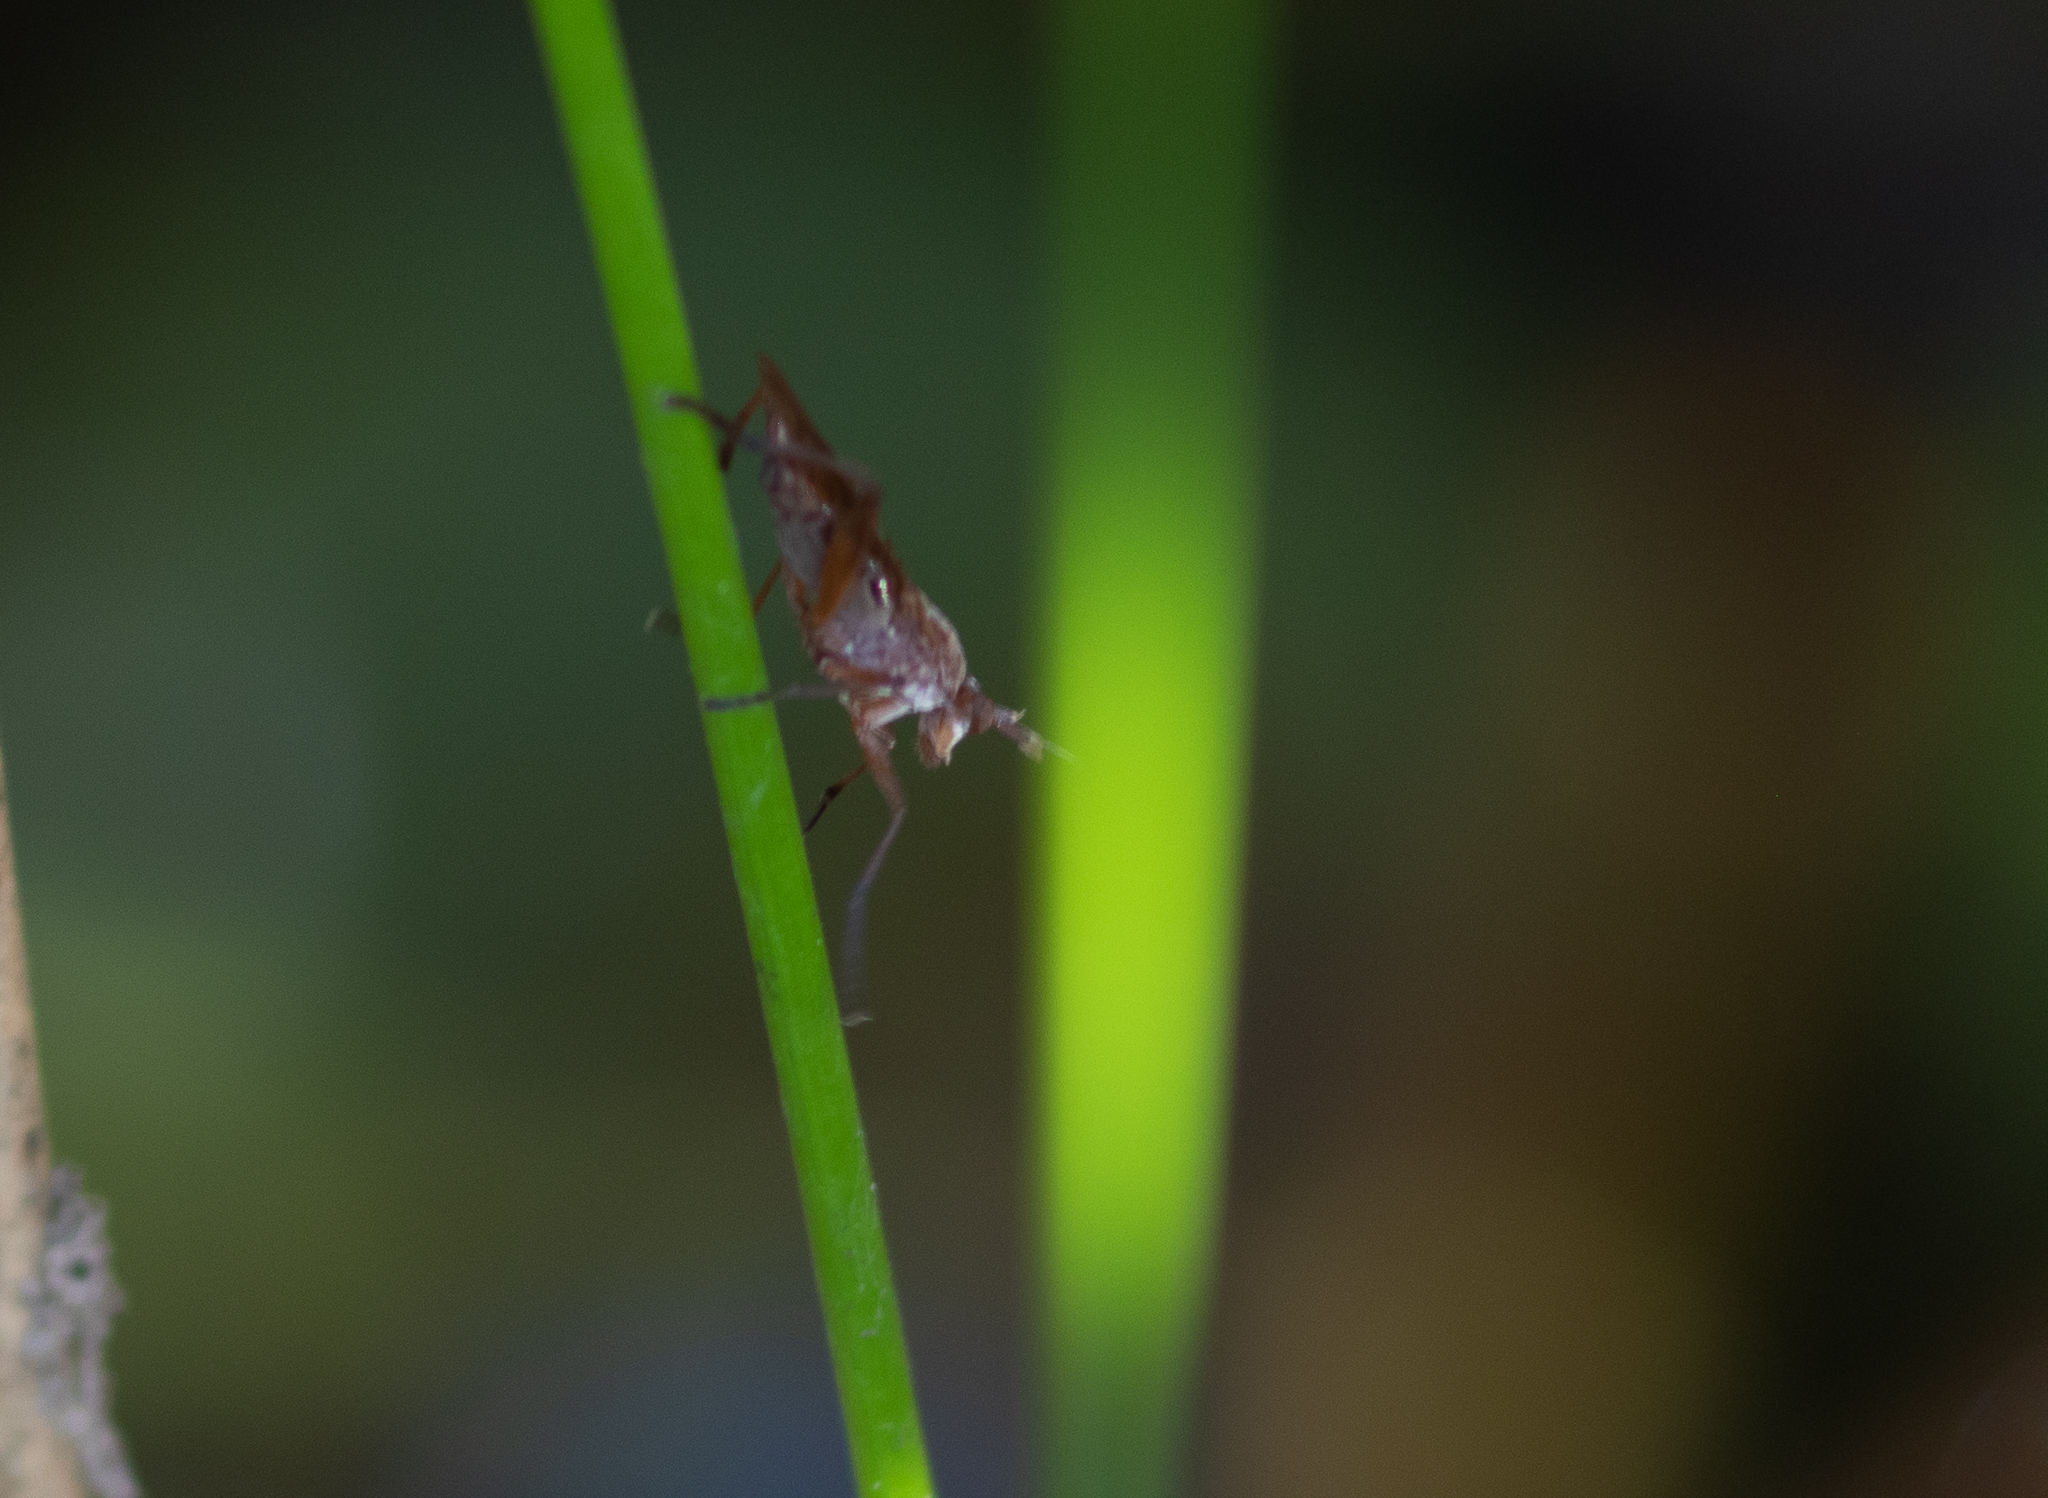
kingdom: Animalia
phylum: Arthropoda
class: Insecta
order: Diptera
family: Sciomyzidae
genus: Sepedon
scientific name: Sepedon
